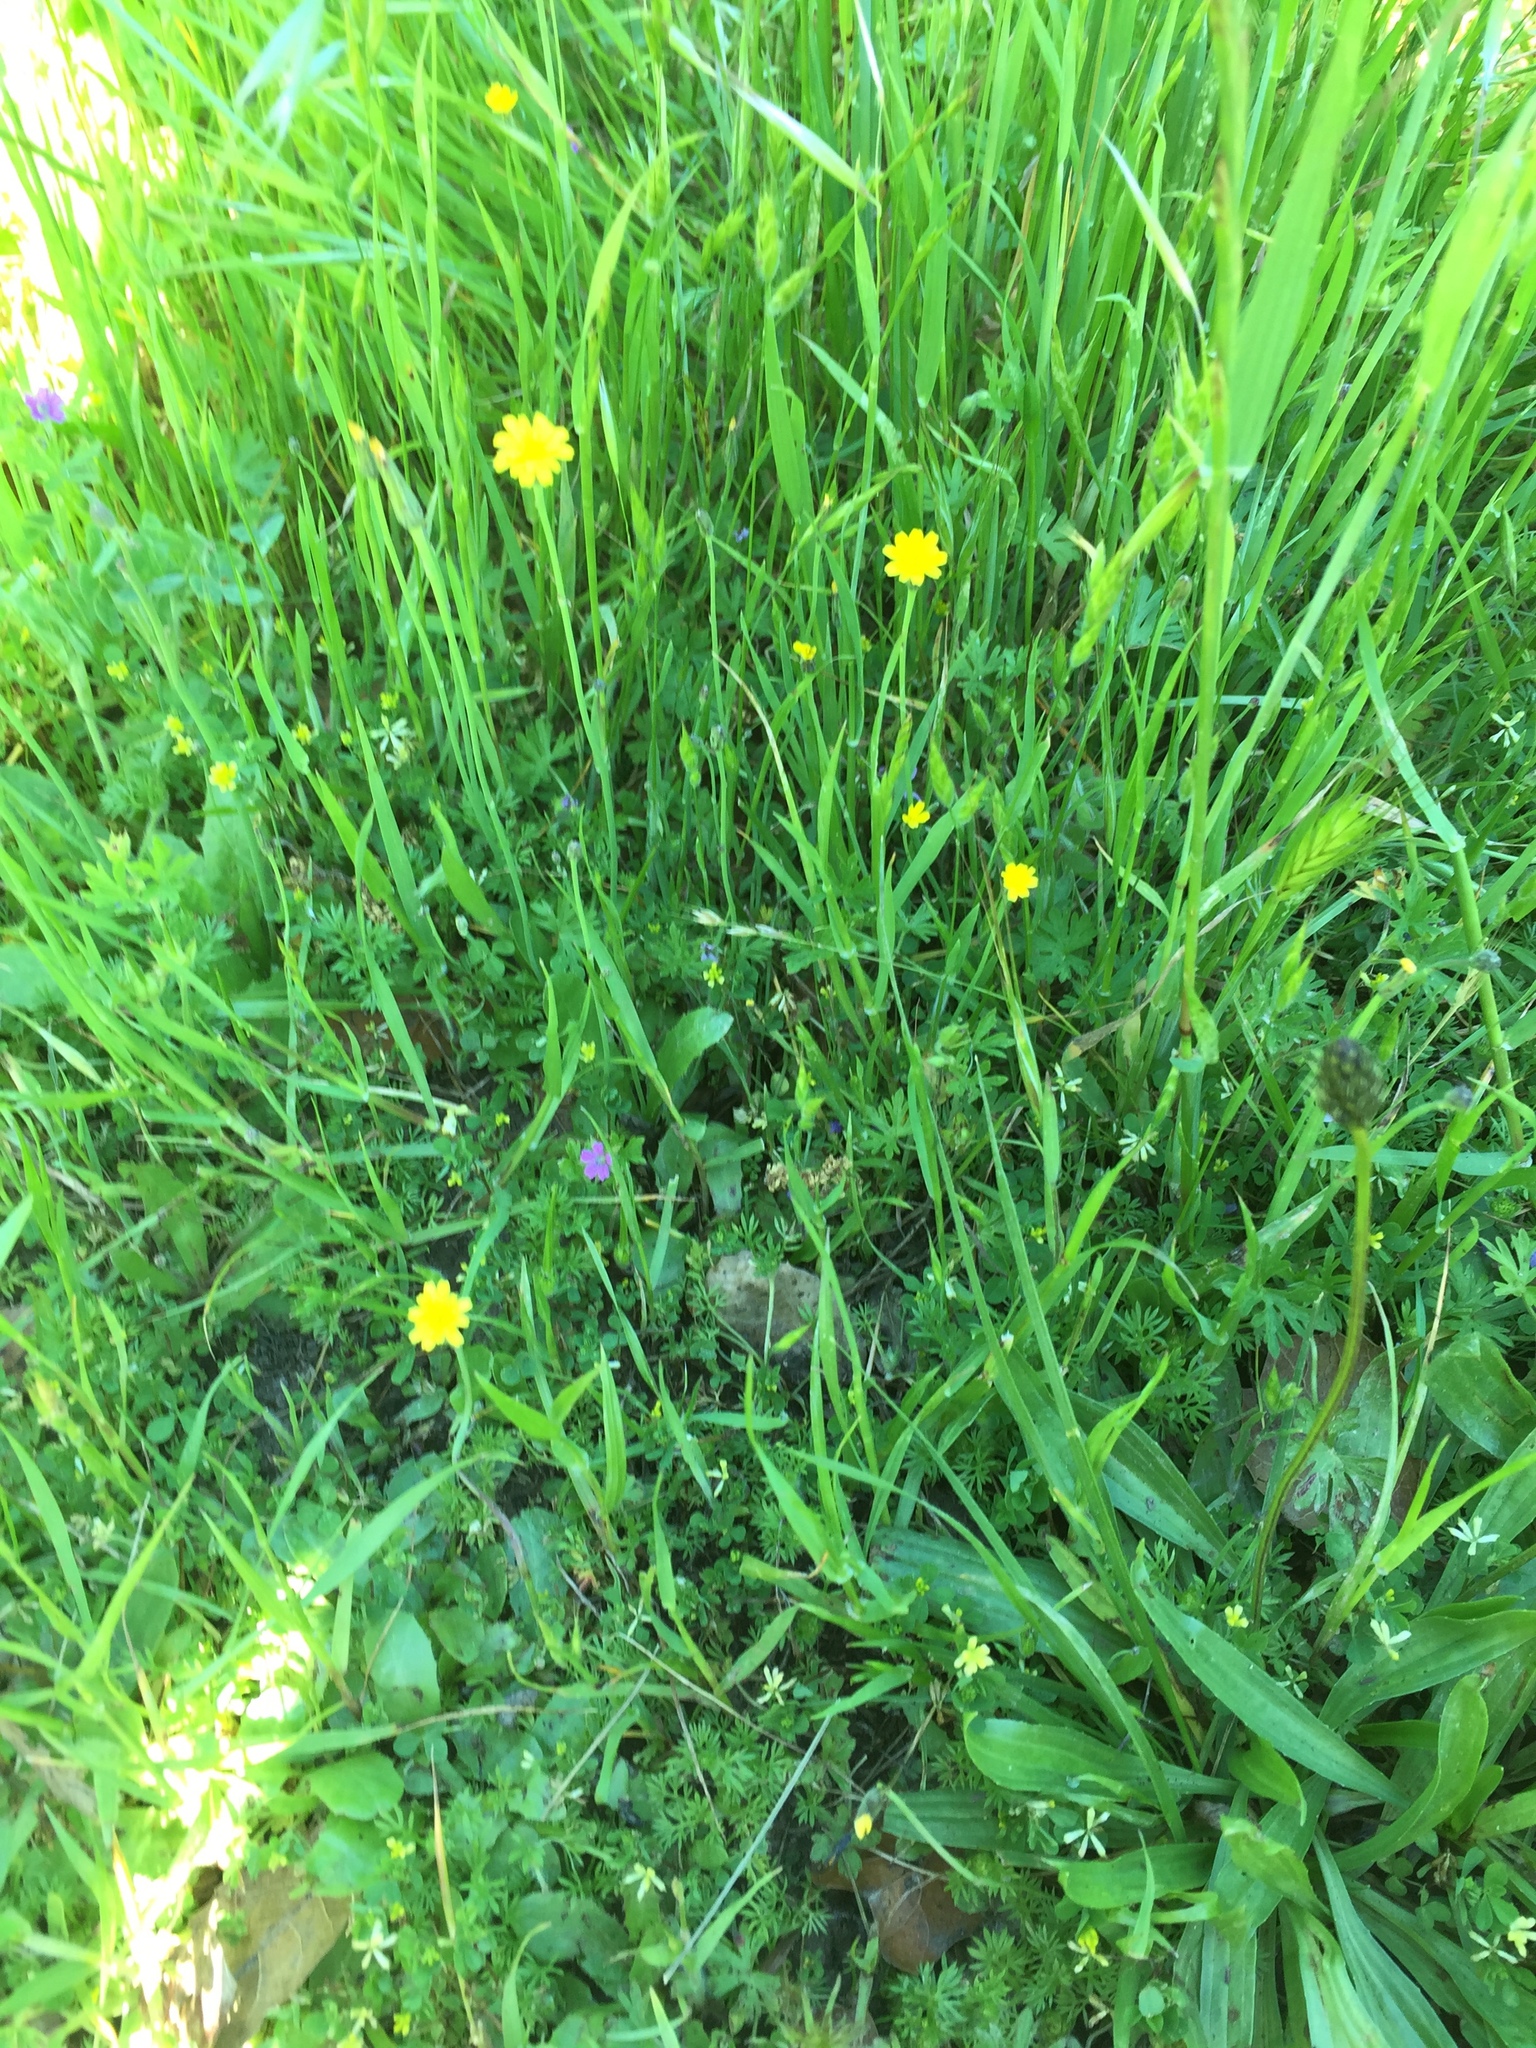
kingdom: Plantae
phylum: Tracheophyta
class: Magnoliopsida
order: Asterales
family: Asteraceae
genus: Hypochaeris
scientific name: Hypochaeris glabra
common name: Smooth catsear
